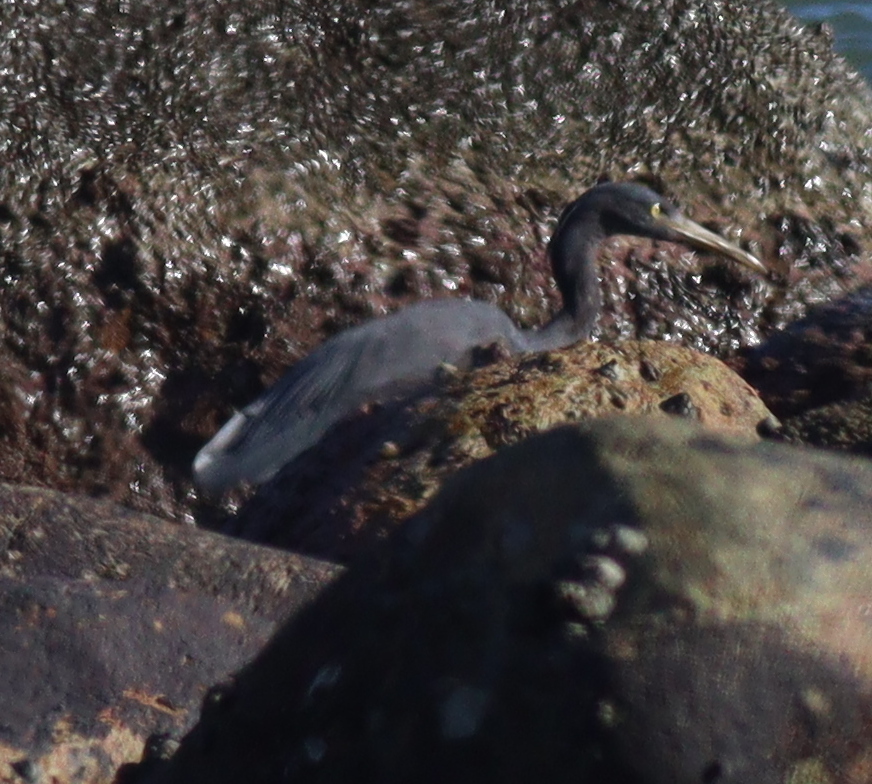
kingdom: Animalia
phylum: Chordata
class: Aves
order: Pelecaniformes
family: Ardeidae
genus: Egretta
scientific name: Egretta sacra
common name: Pacific reef heron
